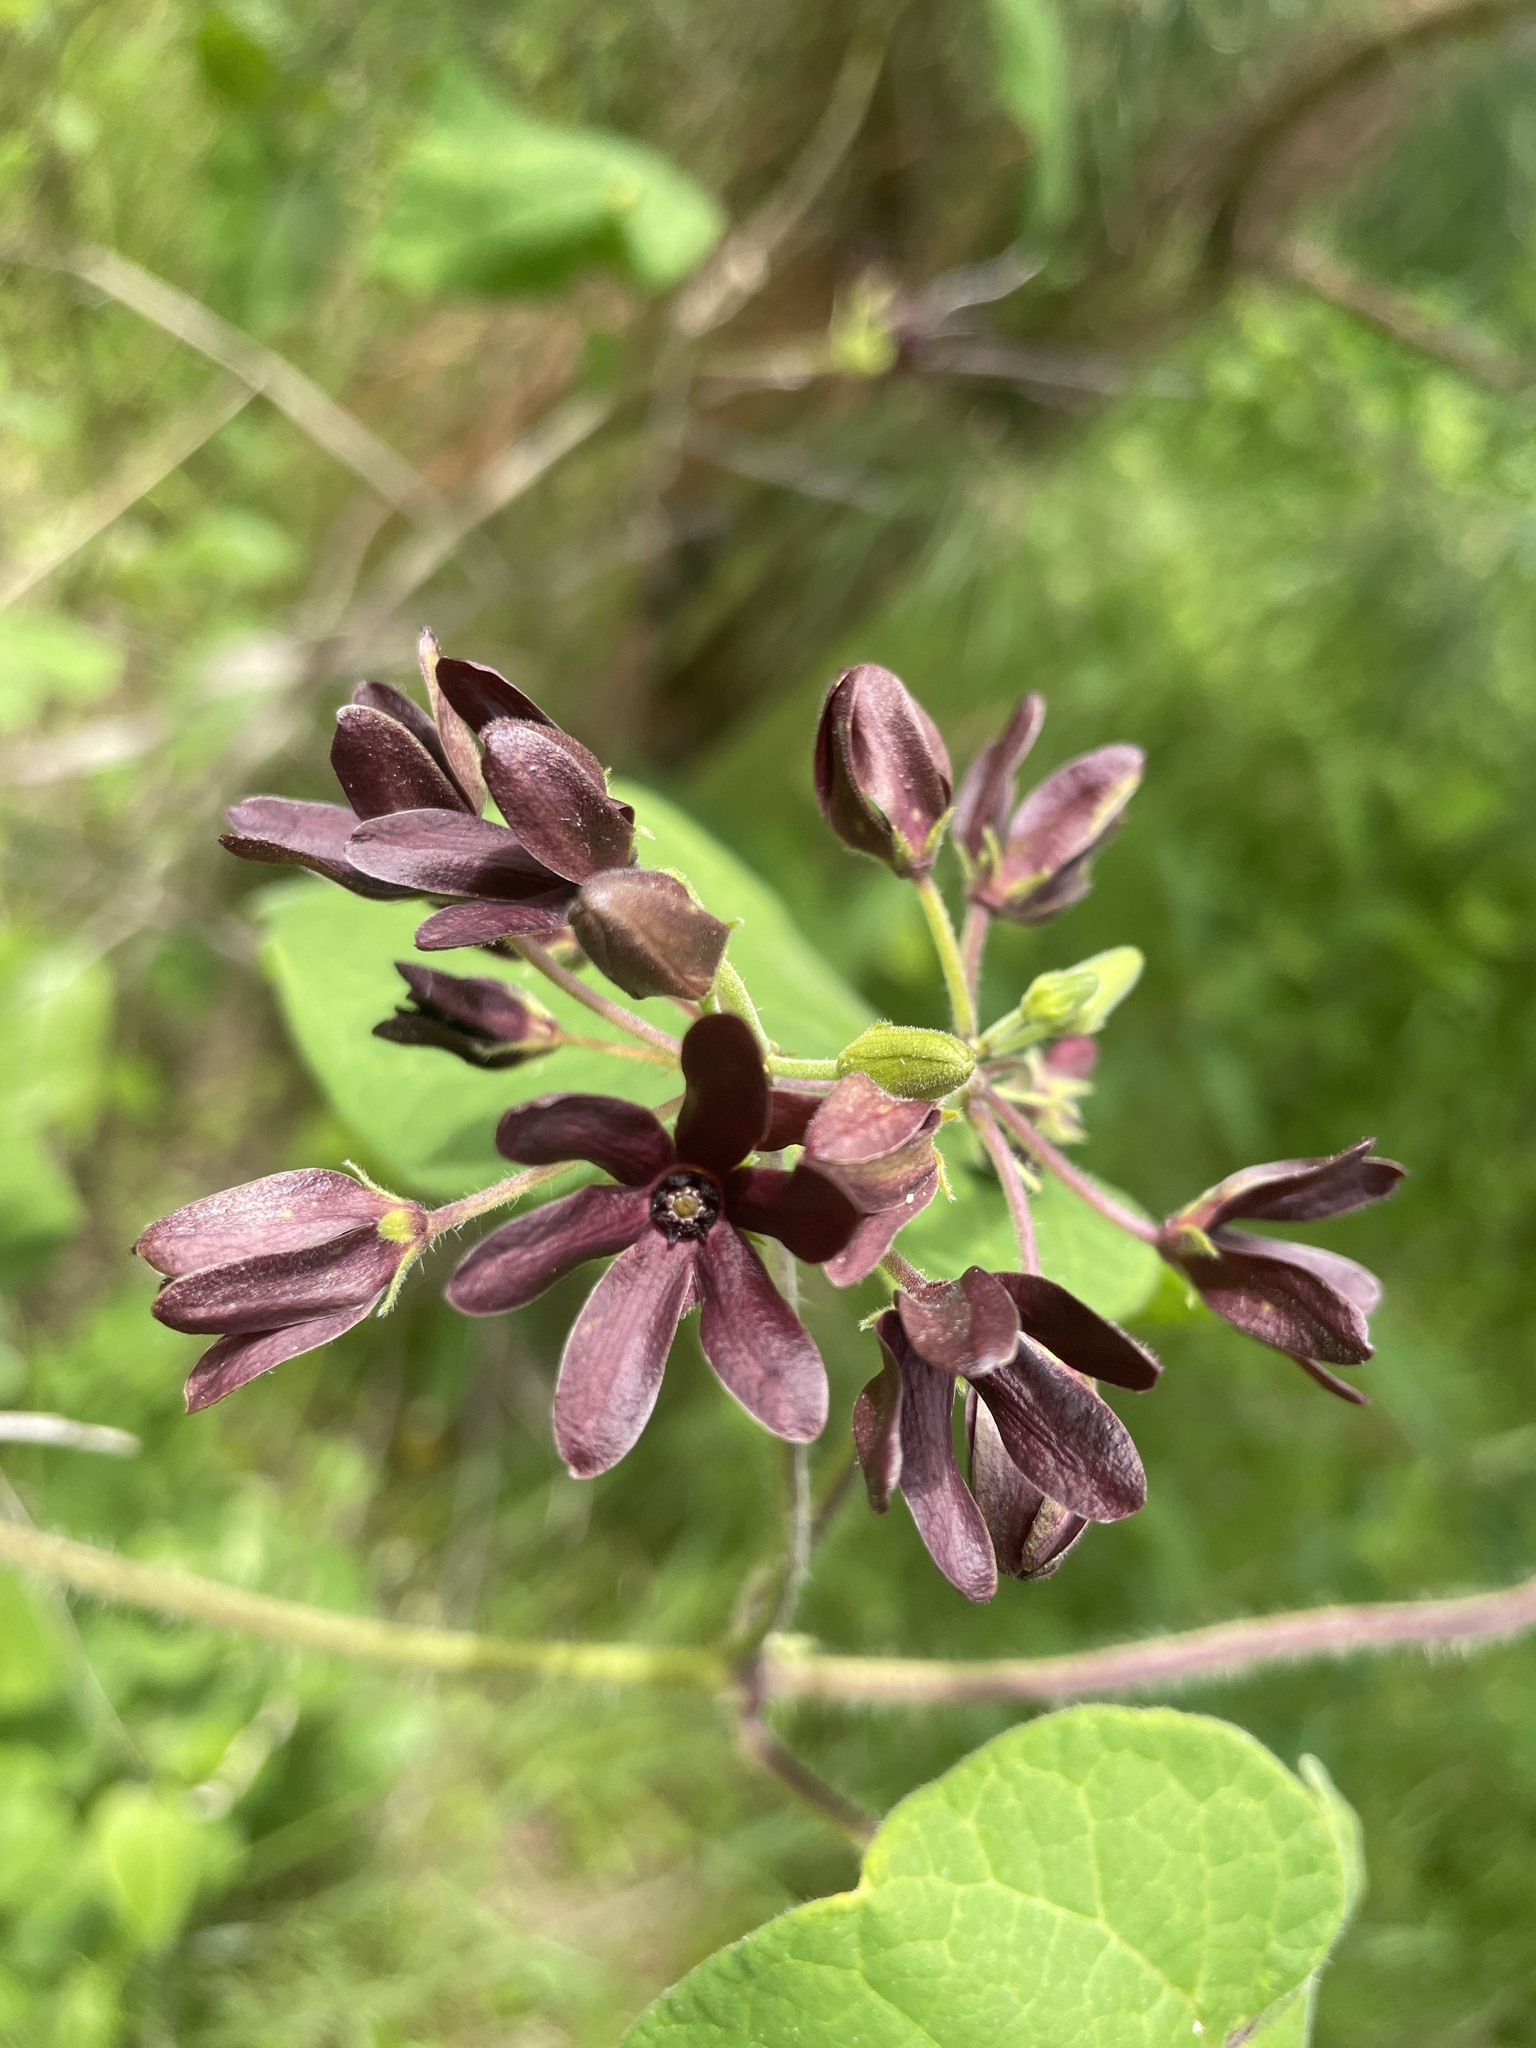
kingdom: Plantae
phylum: Tracheophyta
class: Magnoliopsida
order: Gentianales
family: Apocynaceae
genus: Matelea
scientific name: Matelea carolinensis
